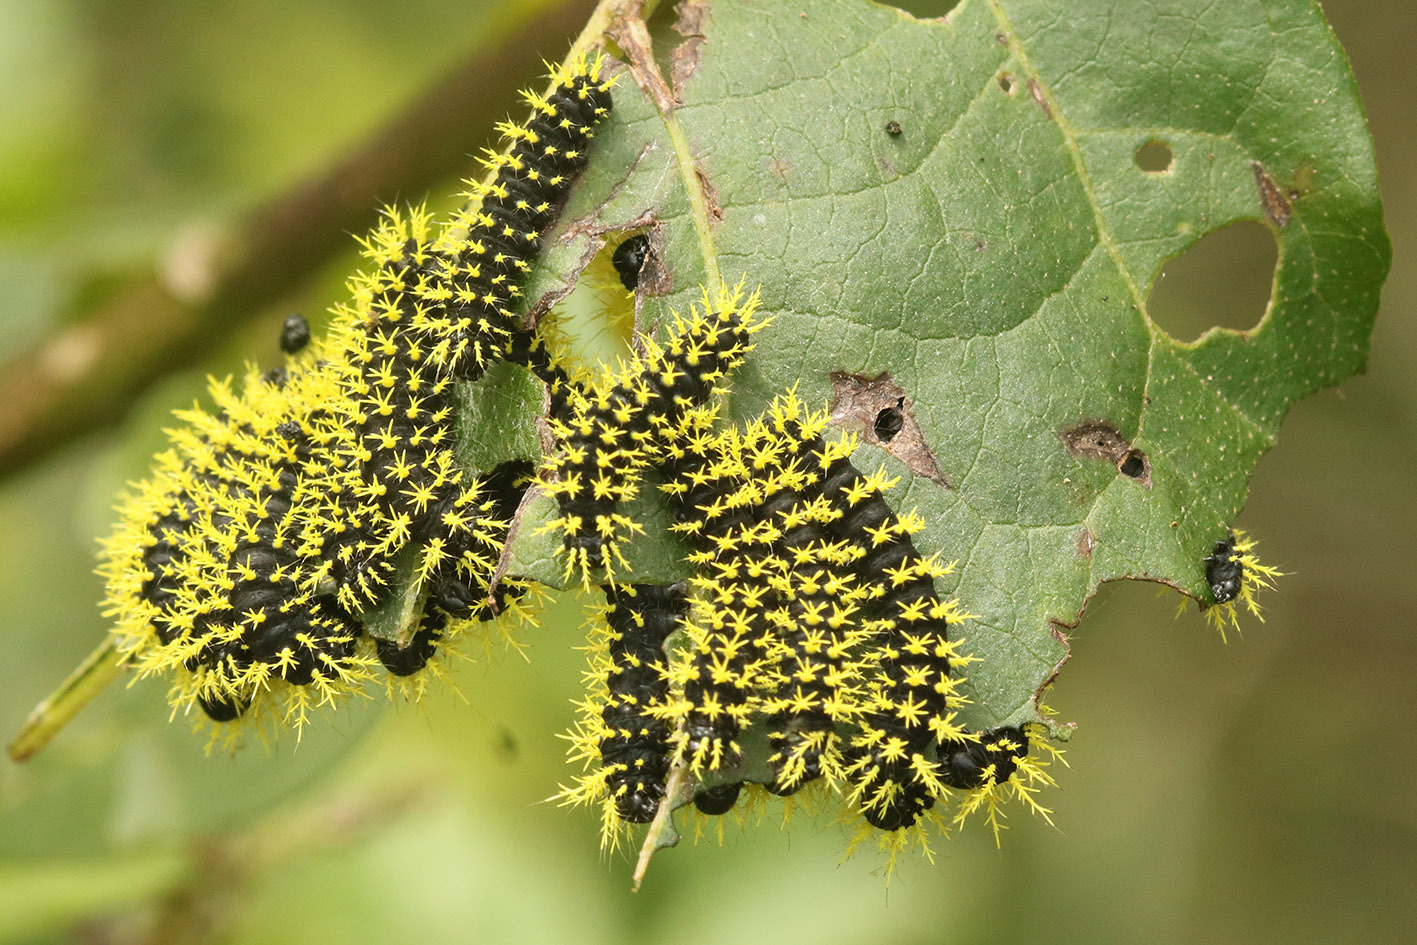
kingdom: Animalia
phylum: Arthropoda
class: Insecta
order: Lepidoptera
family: Saturniidae
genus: Leucanella
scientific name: Leucanella viridescens
